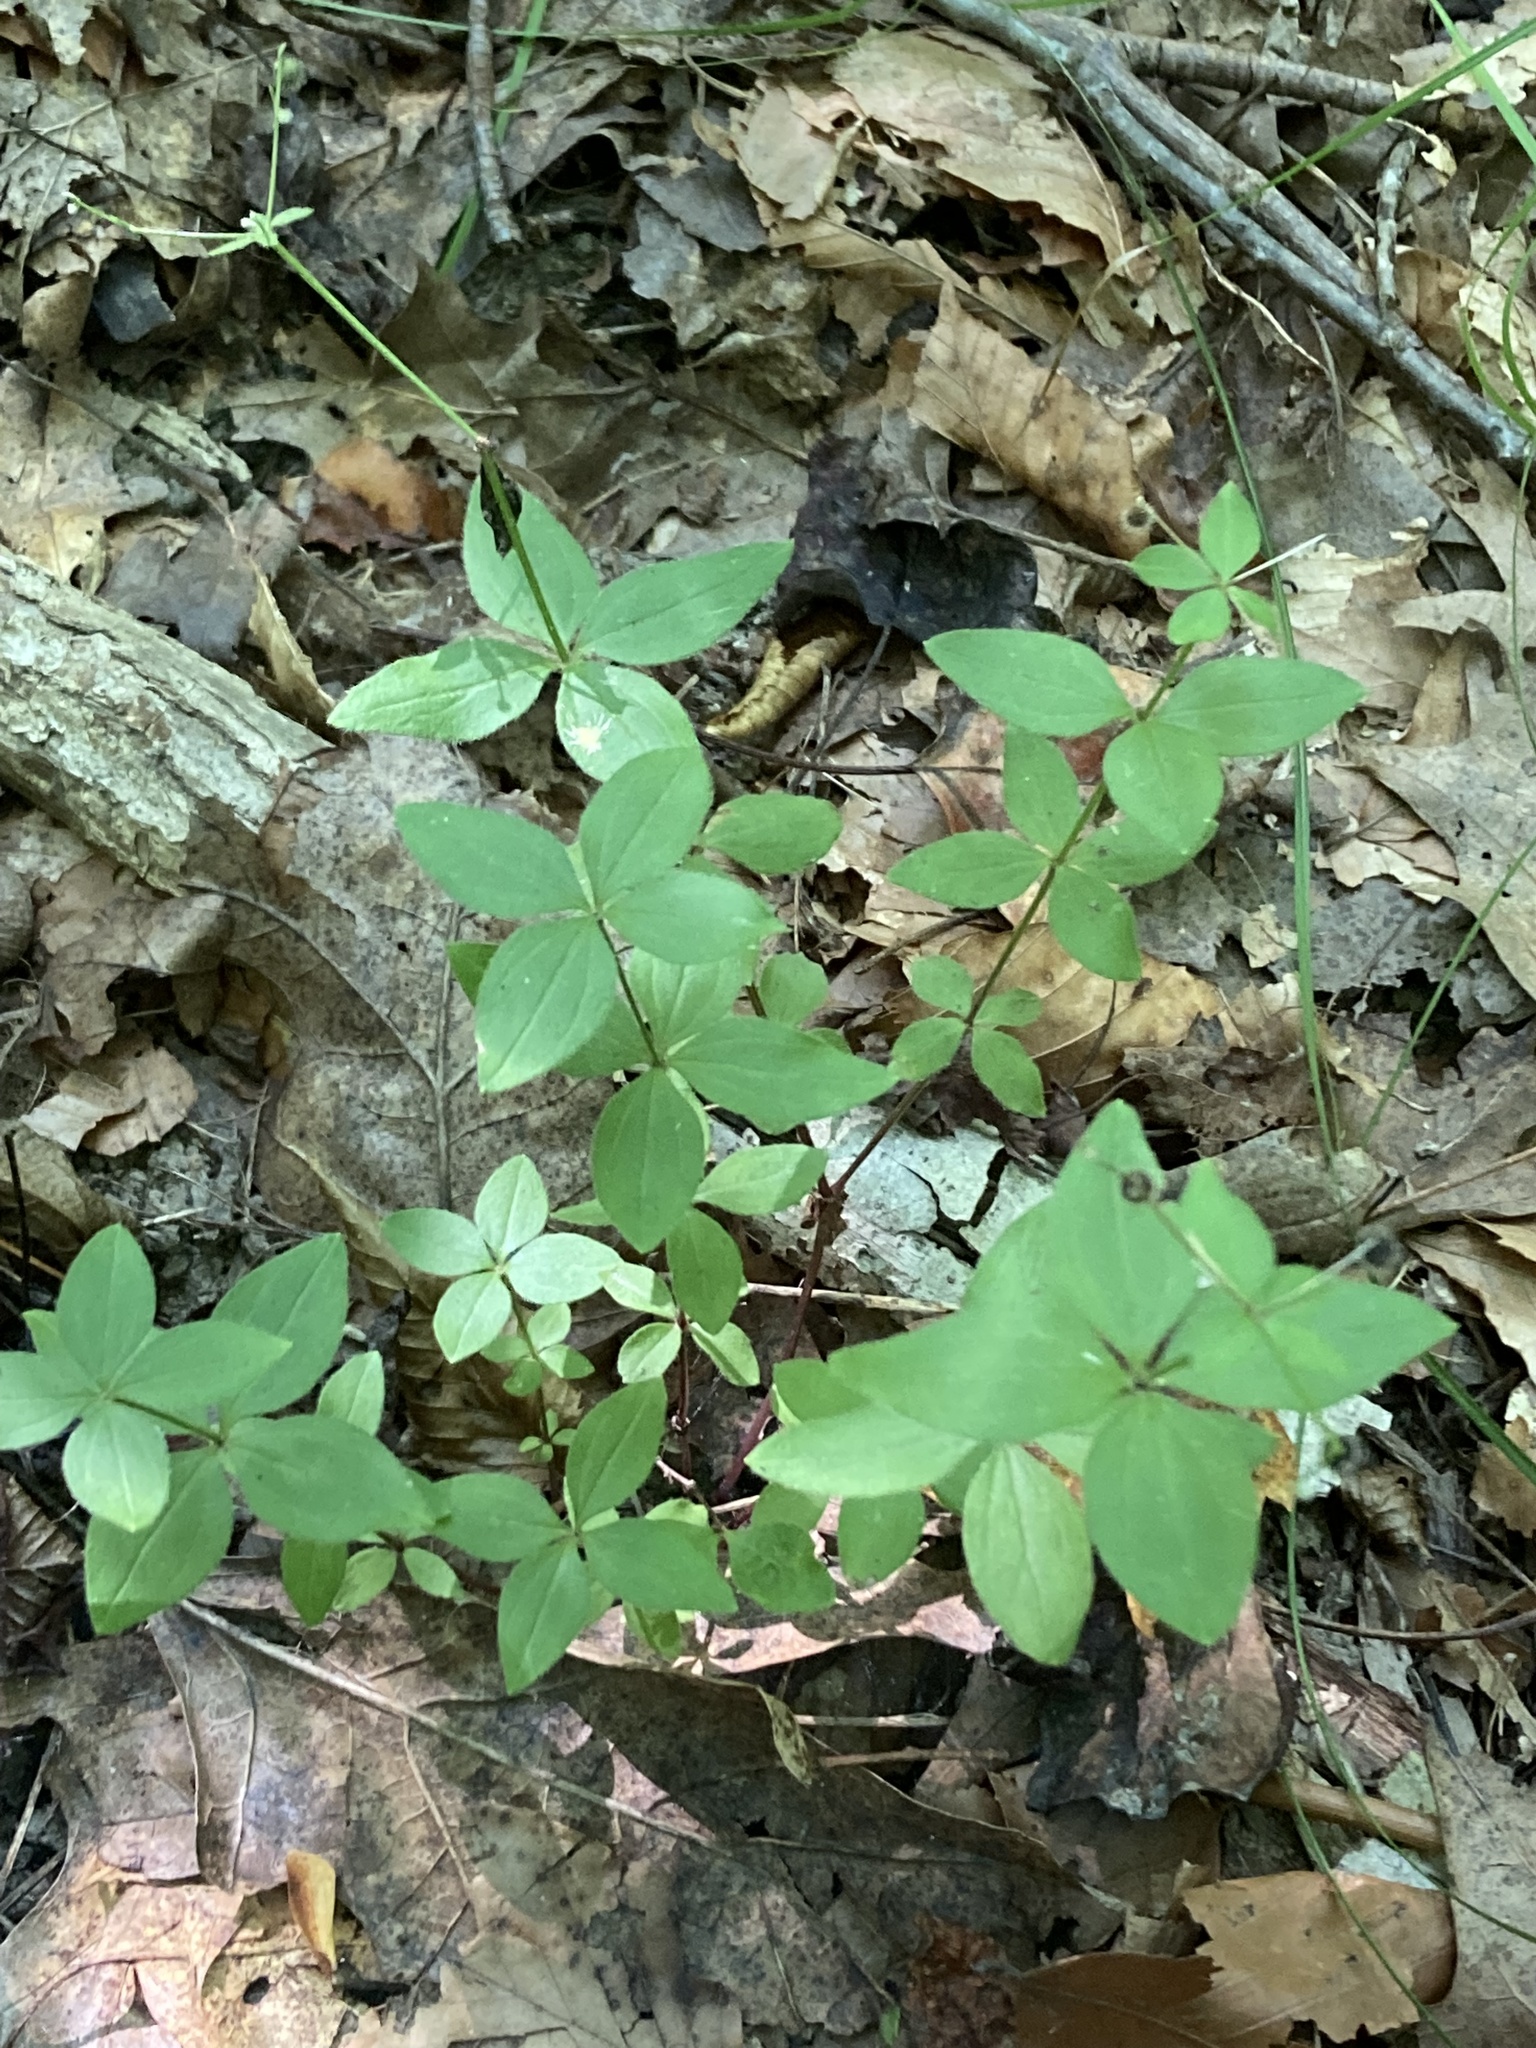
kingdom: Plantae
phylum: Tracheophyta
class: Magnoliopsida
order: Gentianales
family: Rubiaceae
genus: Galium
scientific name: Galium circaezans
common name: Forest bedstraw
